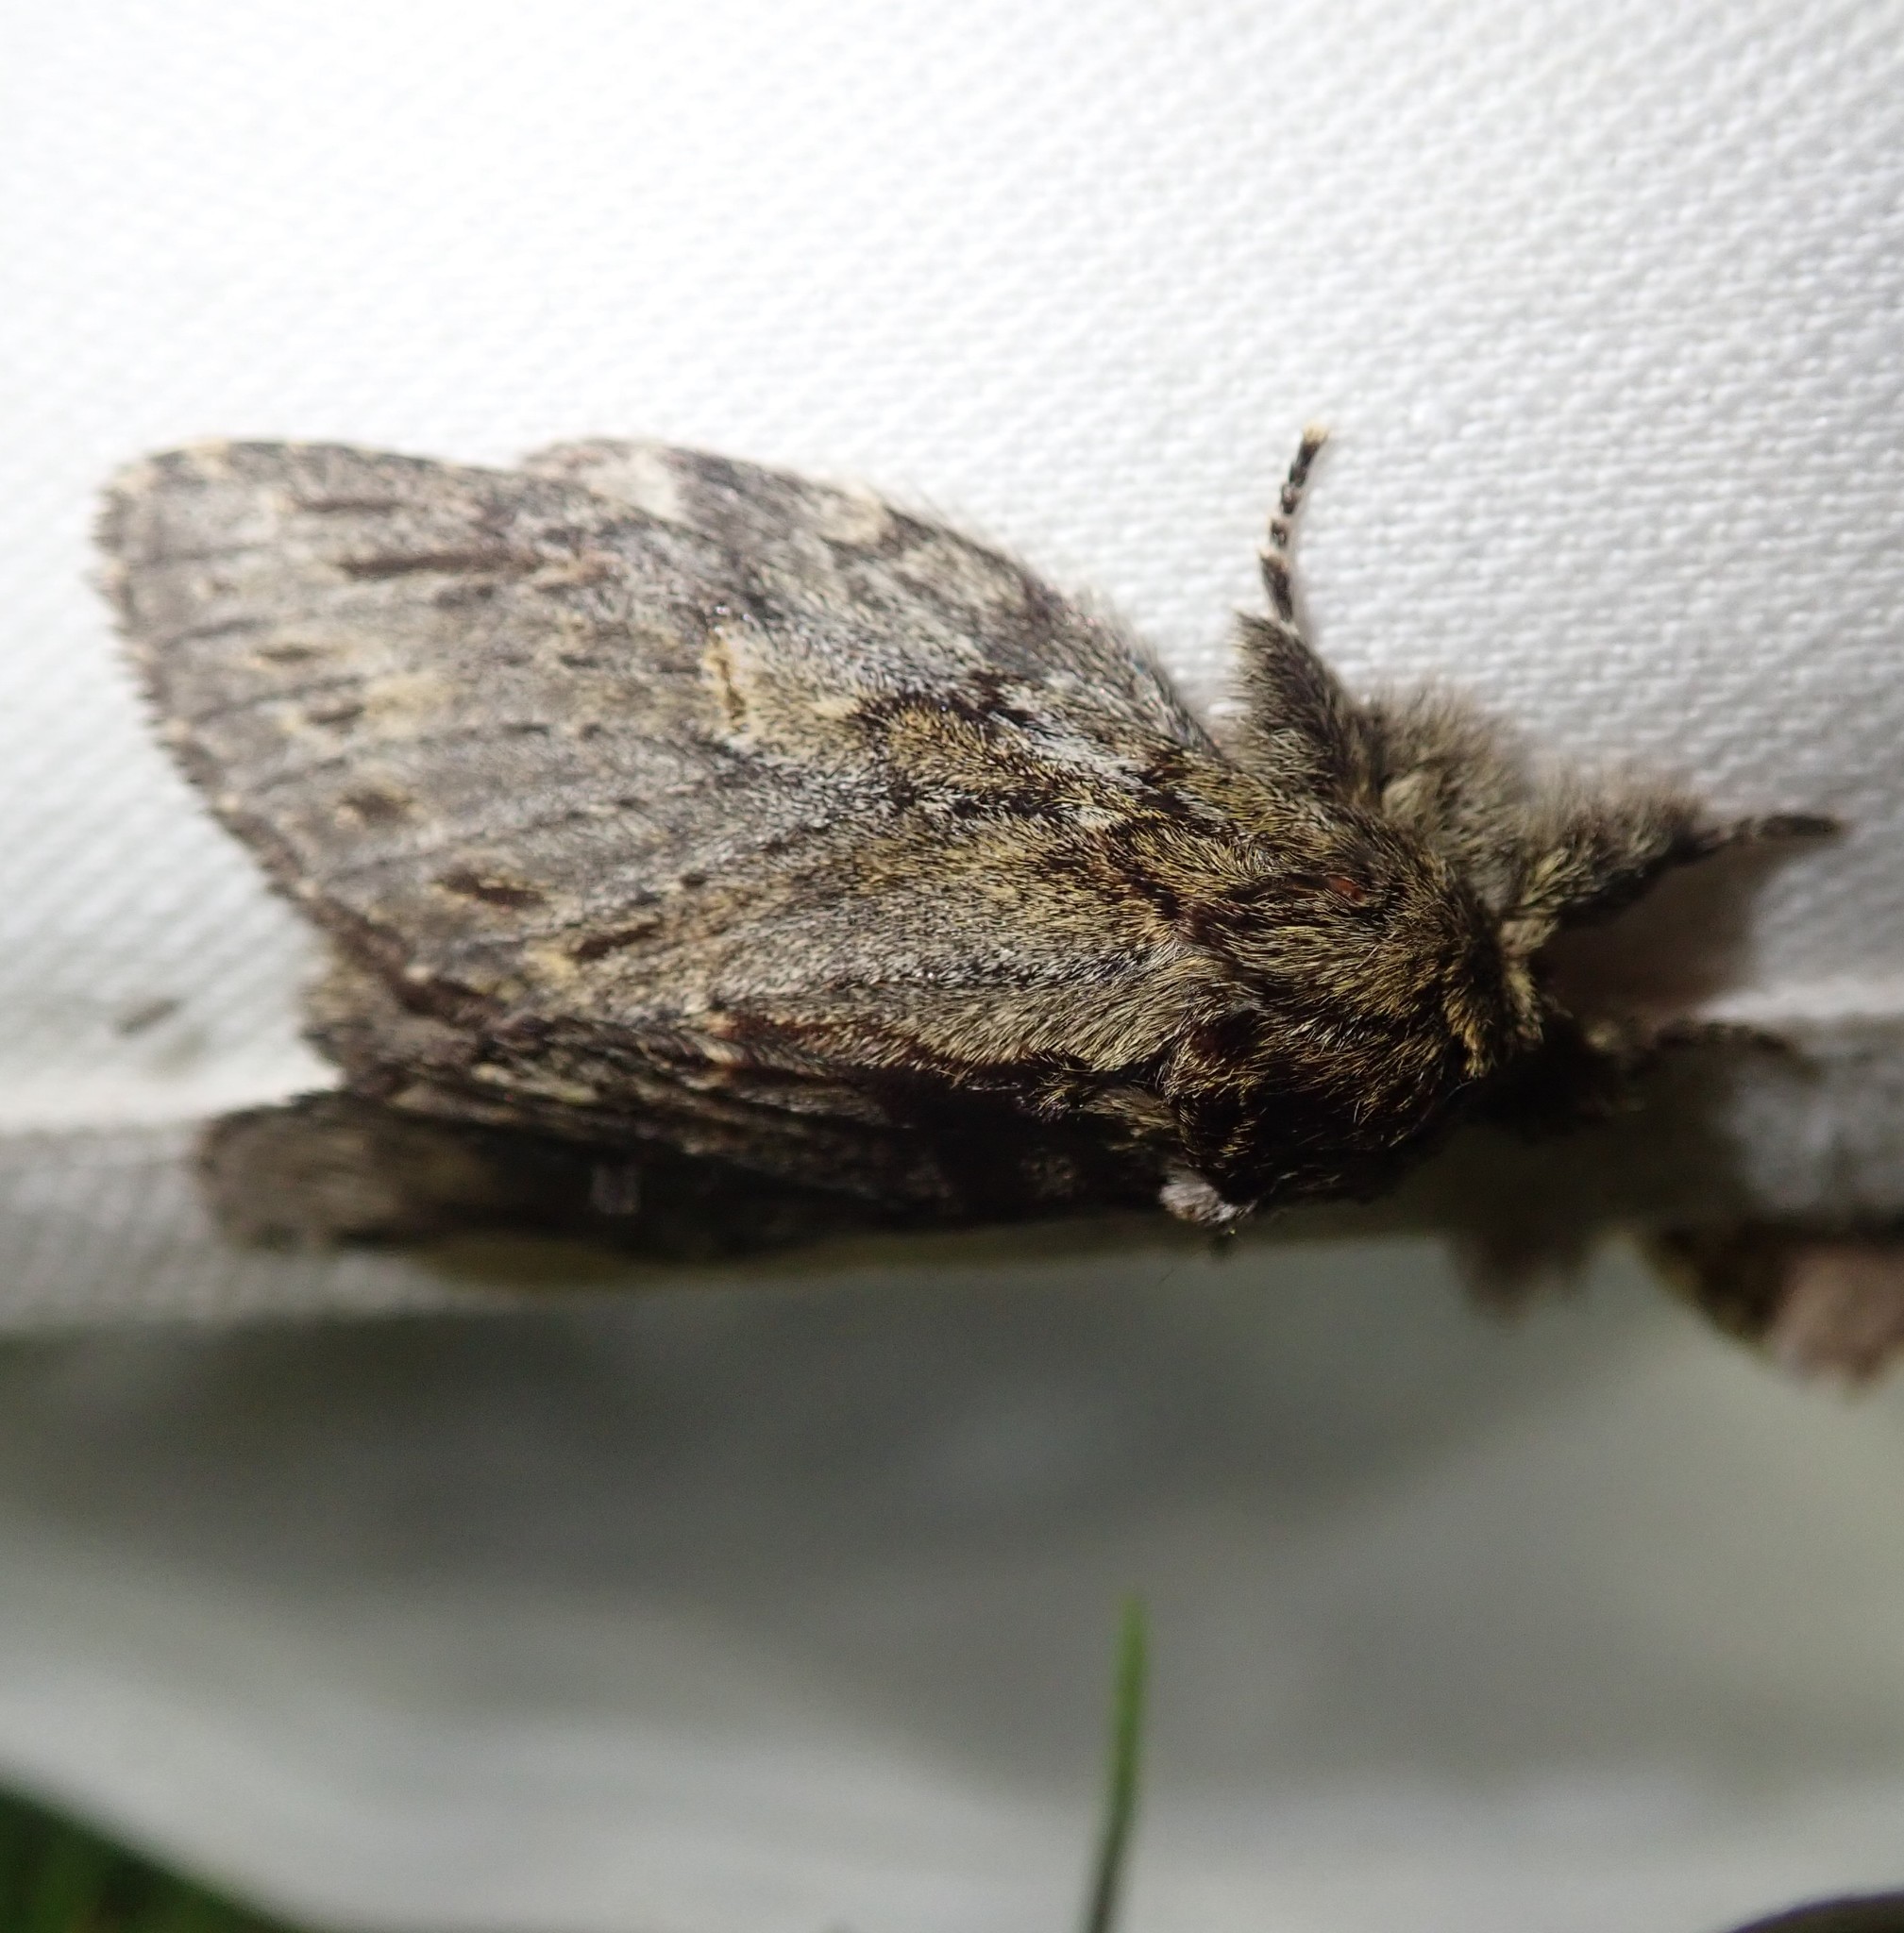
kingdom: Animalia
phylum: Arthropoda
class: Insecta
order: Lepidoptera
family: Notodontidae
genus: Peridea
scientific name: Peridea anceps
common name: Great prominent
